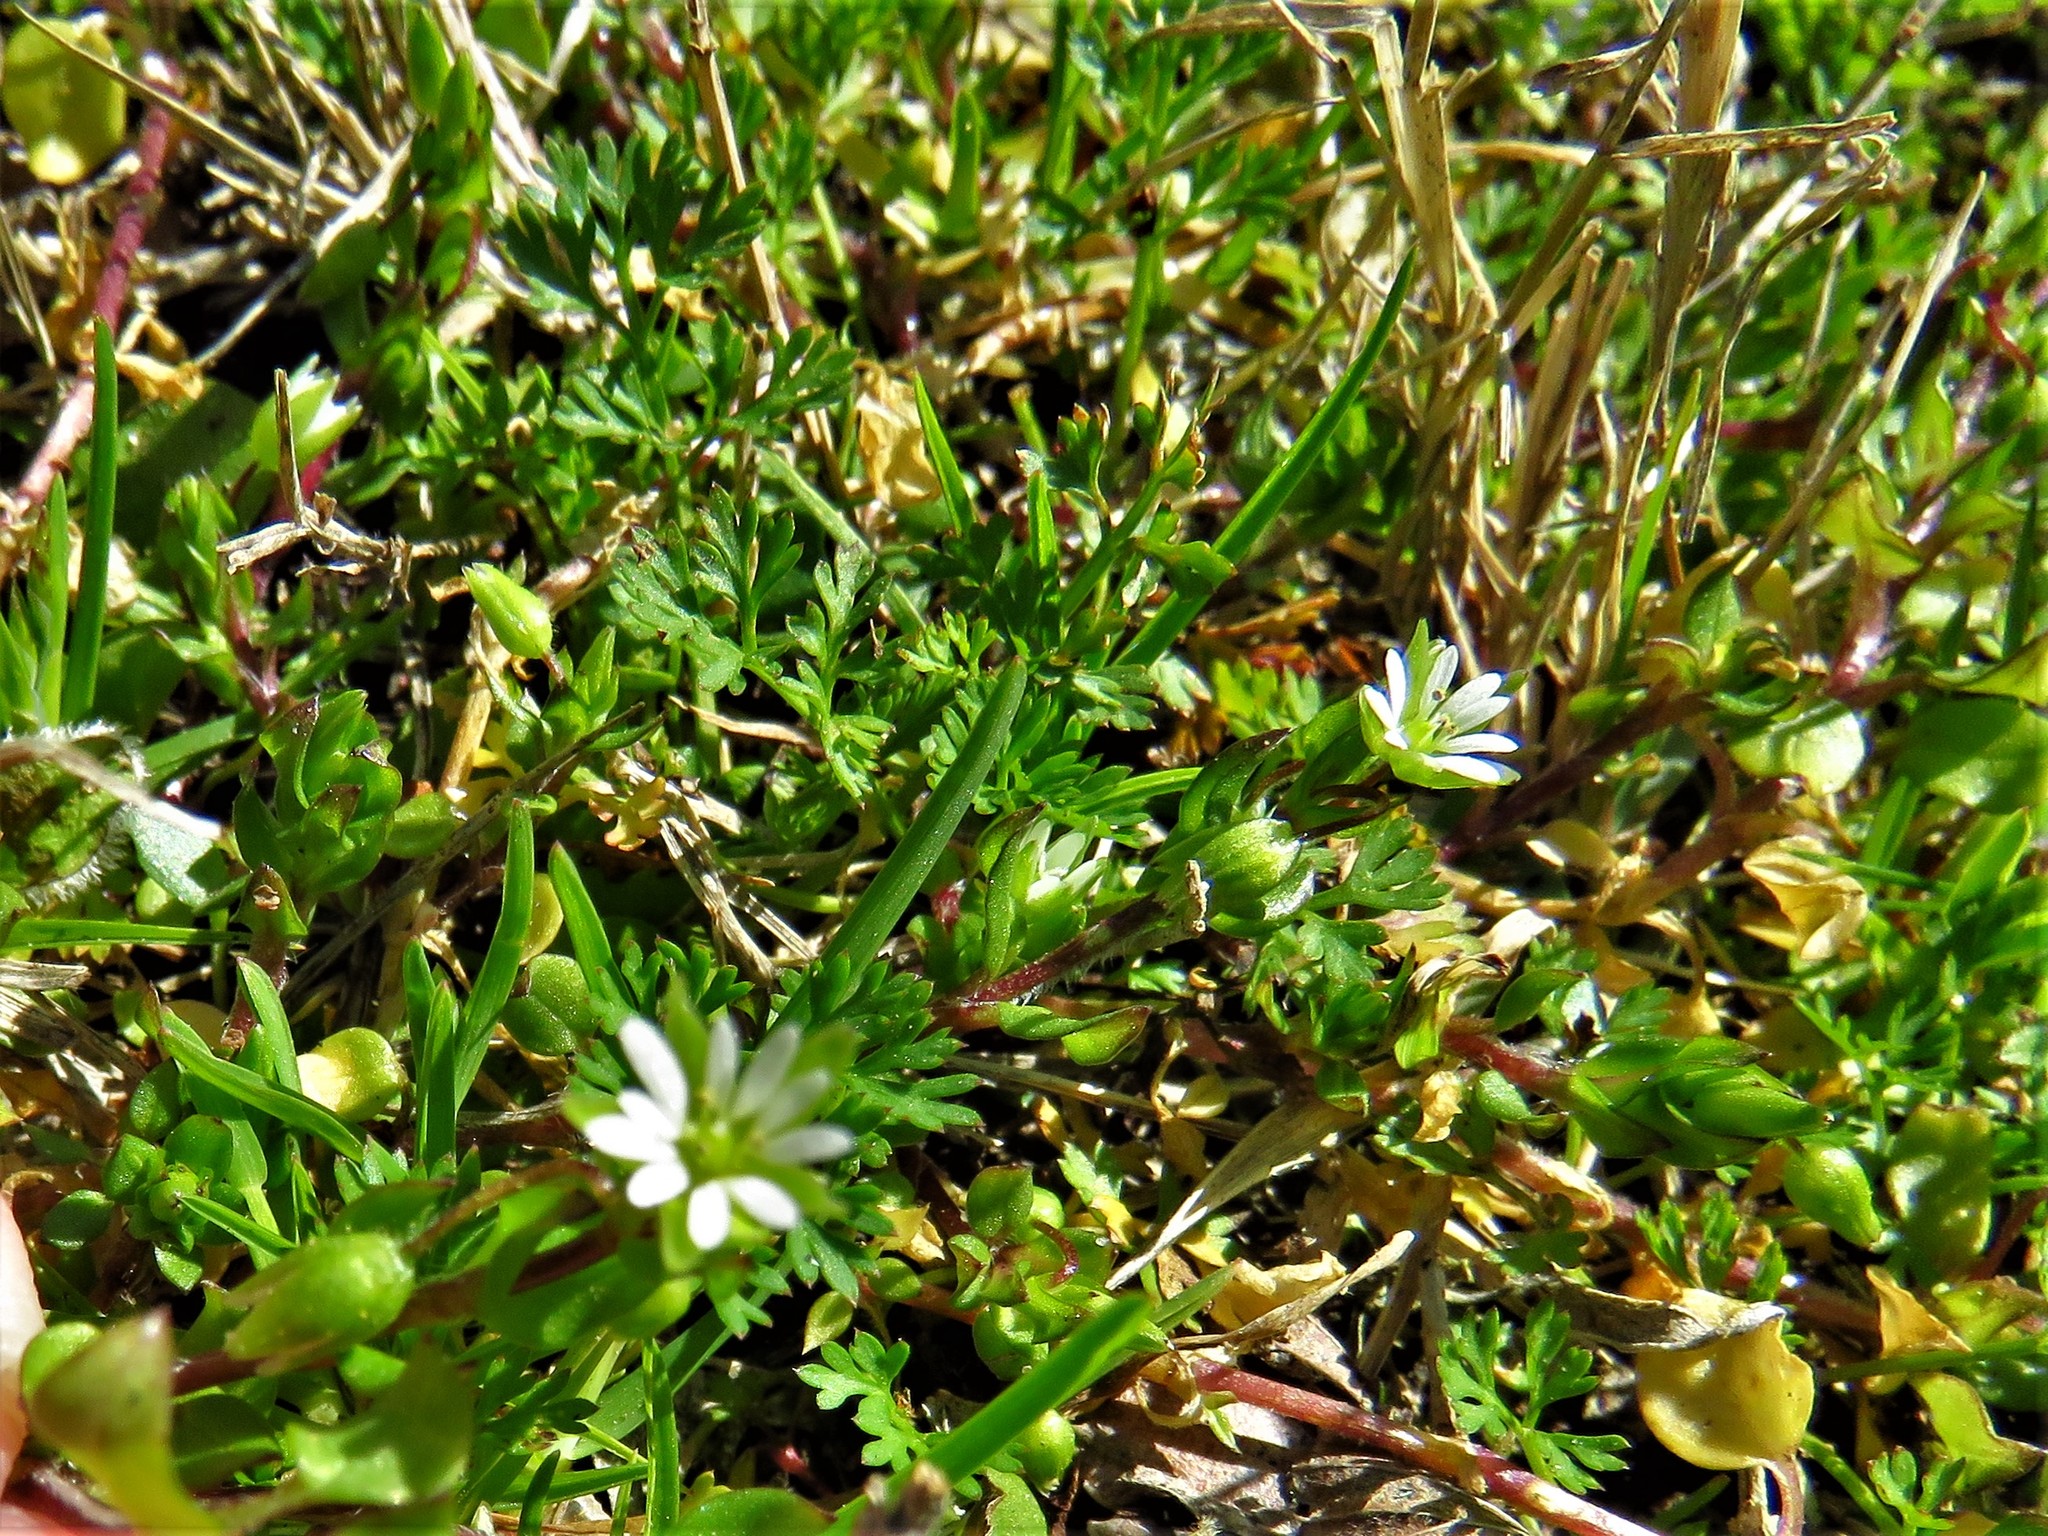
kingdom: Plantae
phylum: Tracheophyta
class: Magnoliopsida
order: Caryophyllales
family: Caryophyllaceae
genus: Stellaria
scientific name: Stellaria media
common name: Common chickweed
